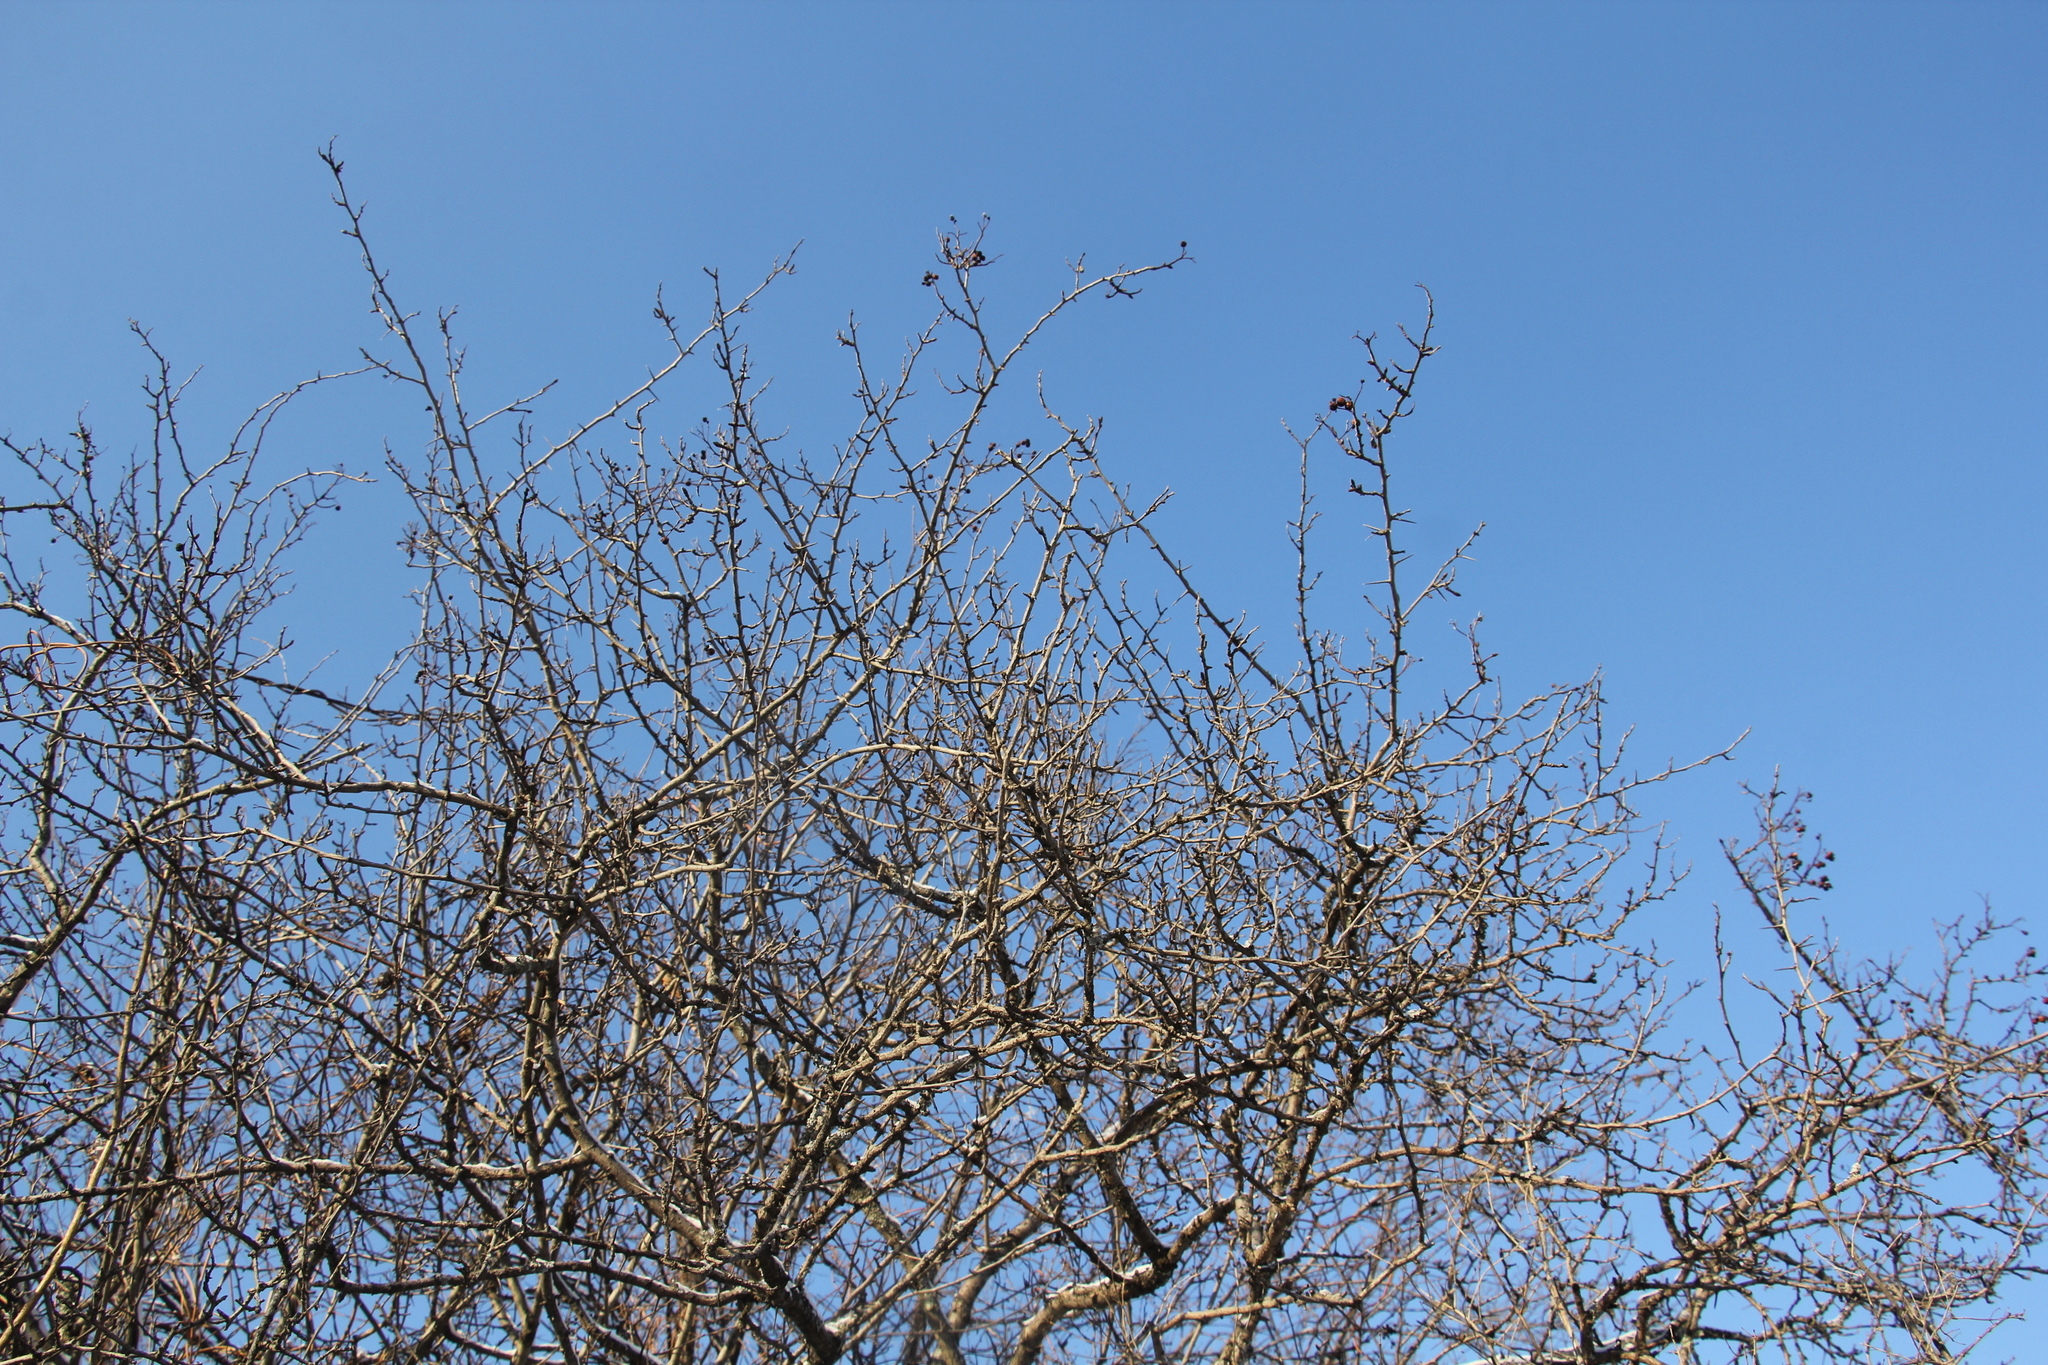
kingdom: Plantae
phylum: Tracheophyta
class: Magnoliopsida
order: Rosales
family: Rosaceae
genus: Malus
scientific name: Malus baccata
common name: Siberian crab
